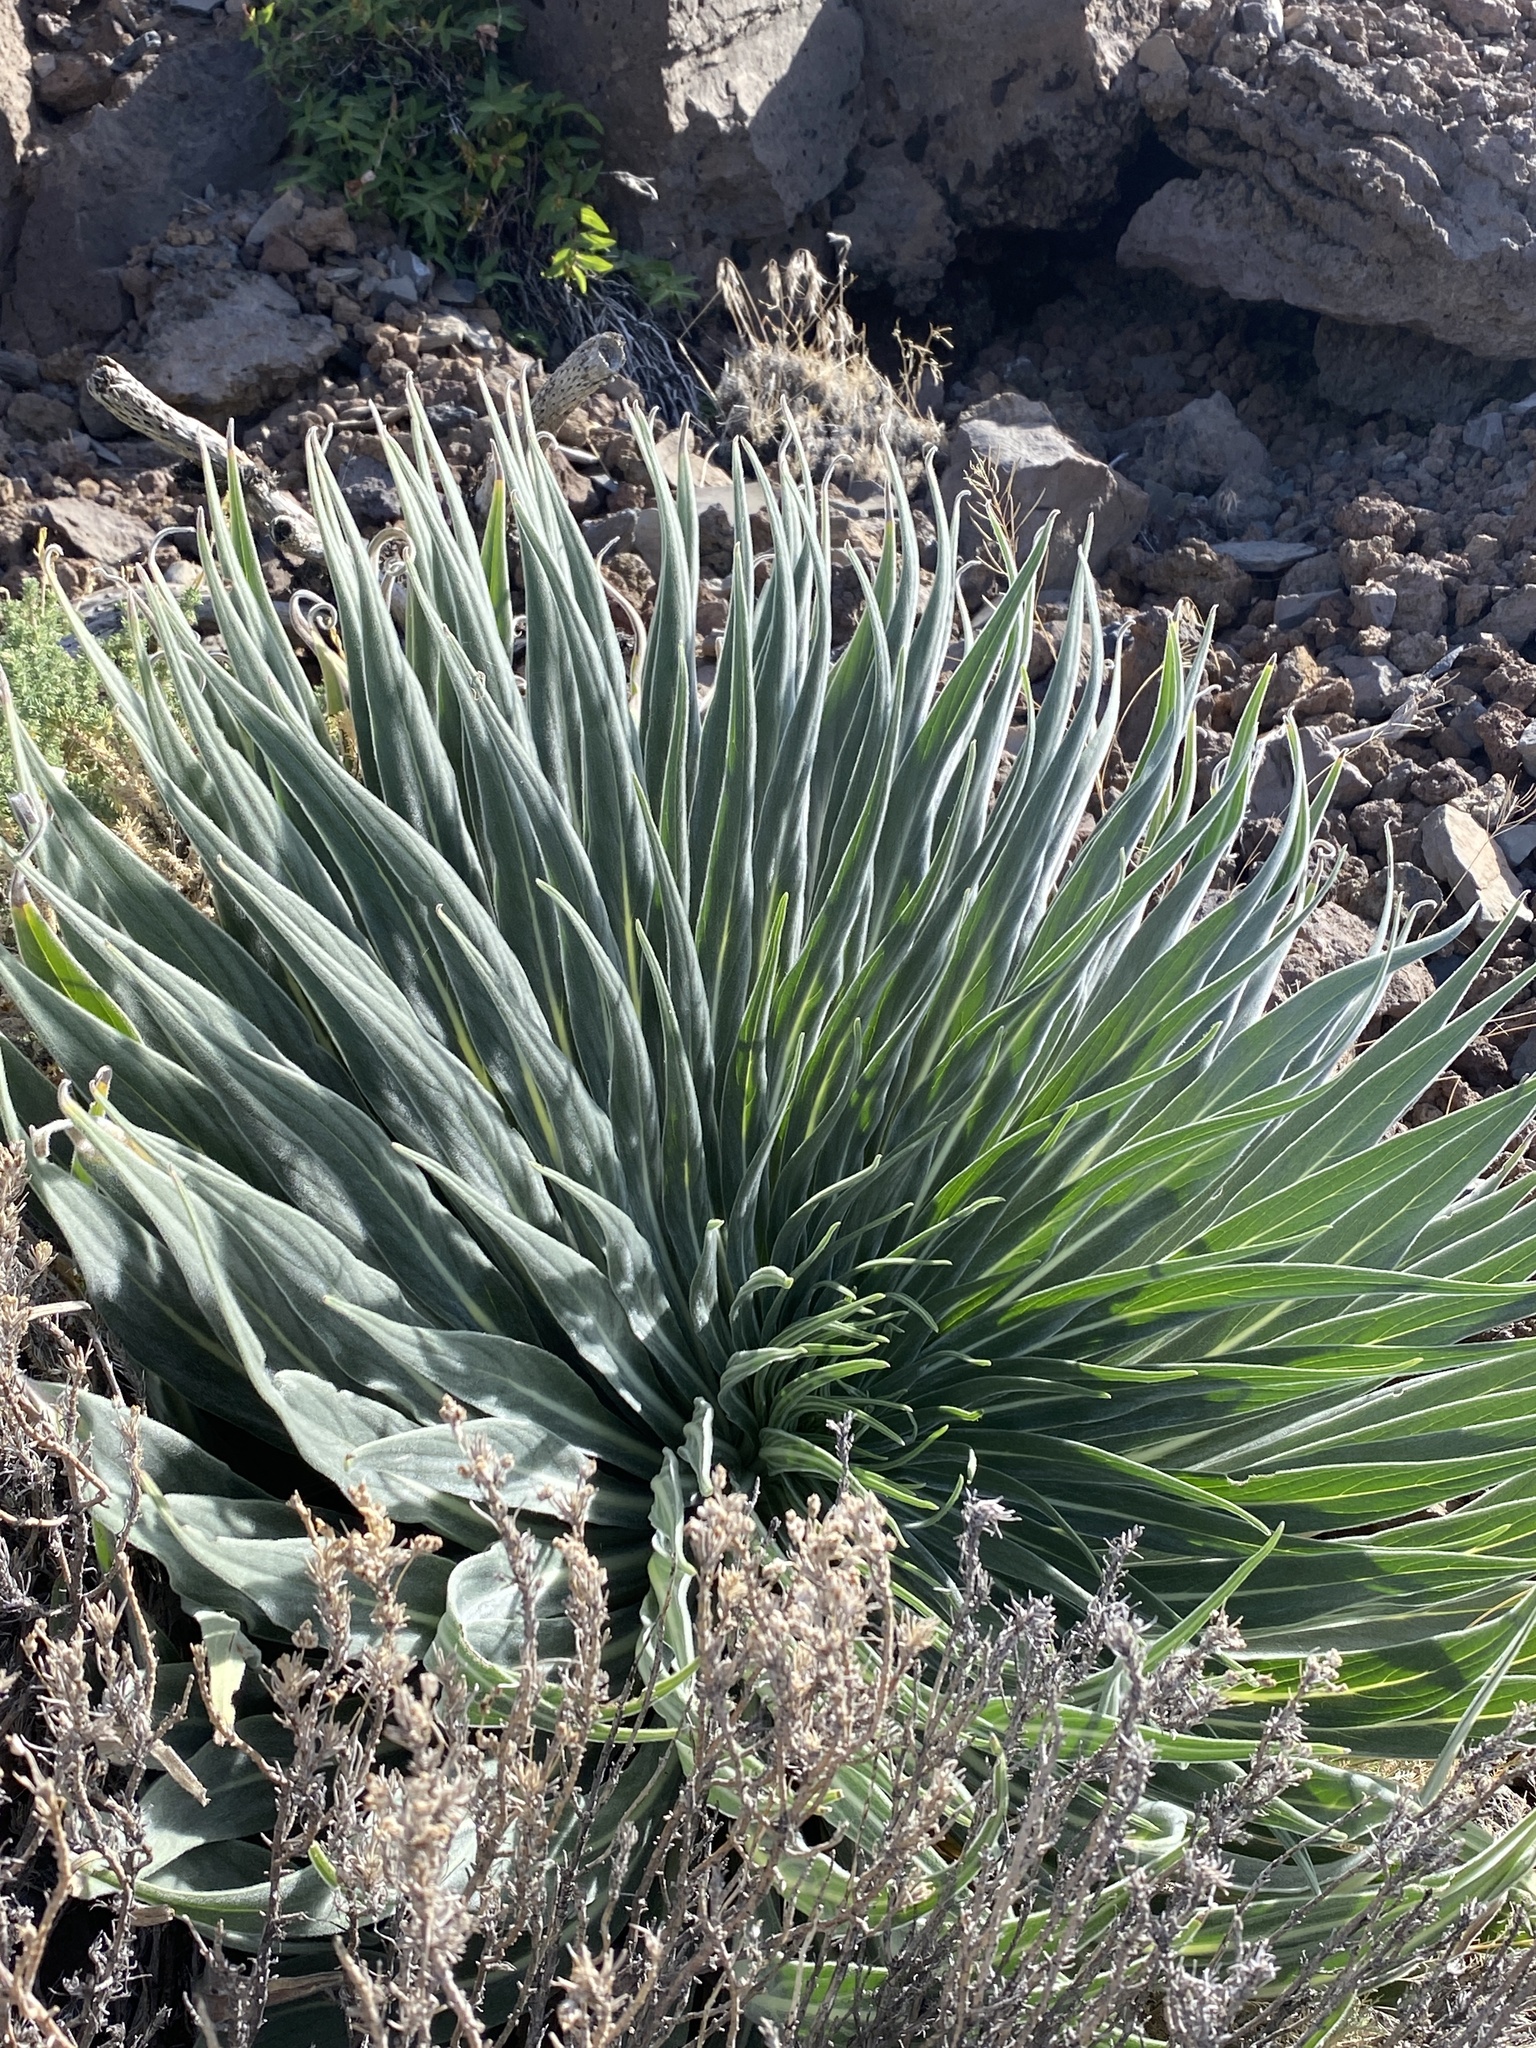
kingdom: Plantae
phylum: Tracheophyta
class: Magnoliopsida
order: Boraginales
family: Boraginaceae
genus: Echium
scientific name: Echium perezii
